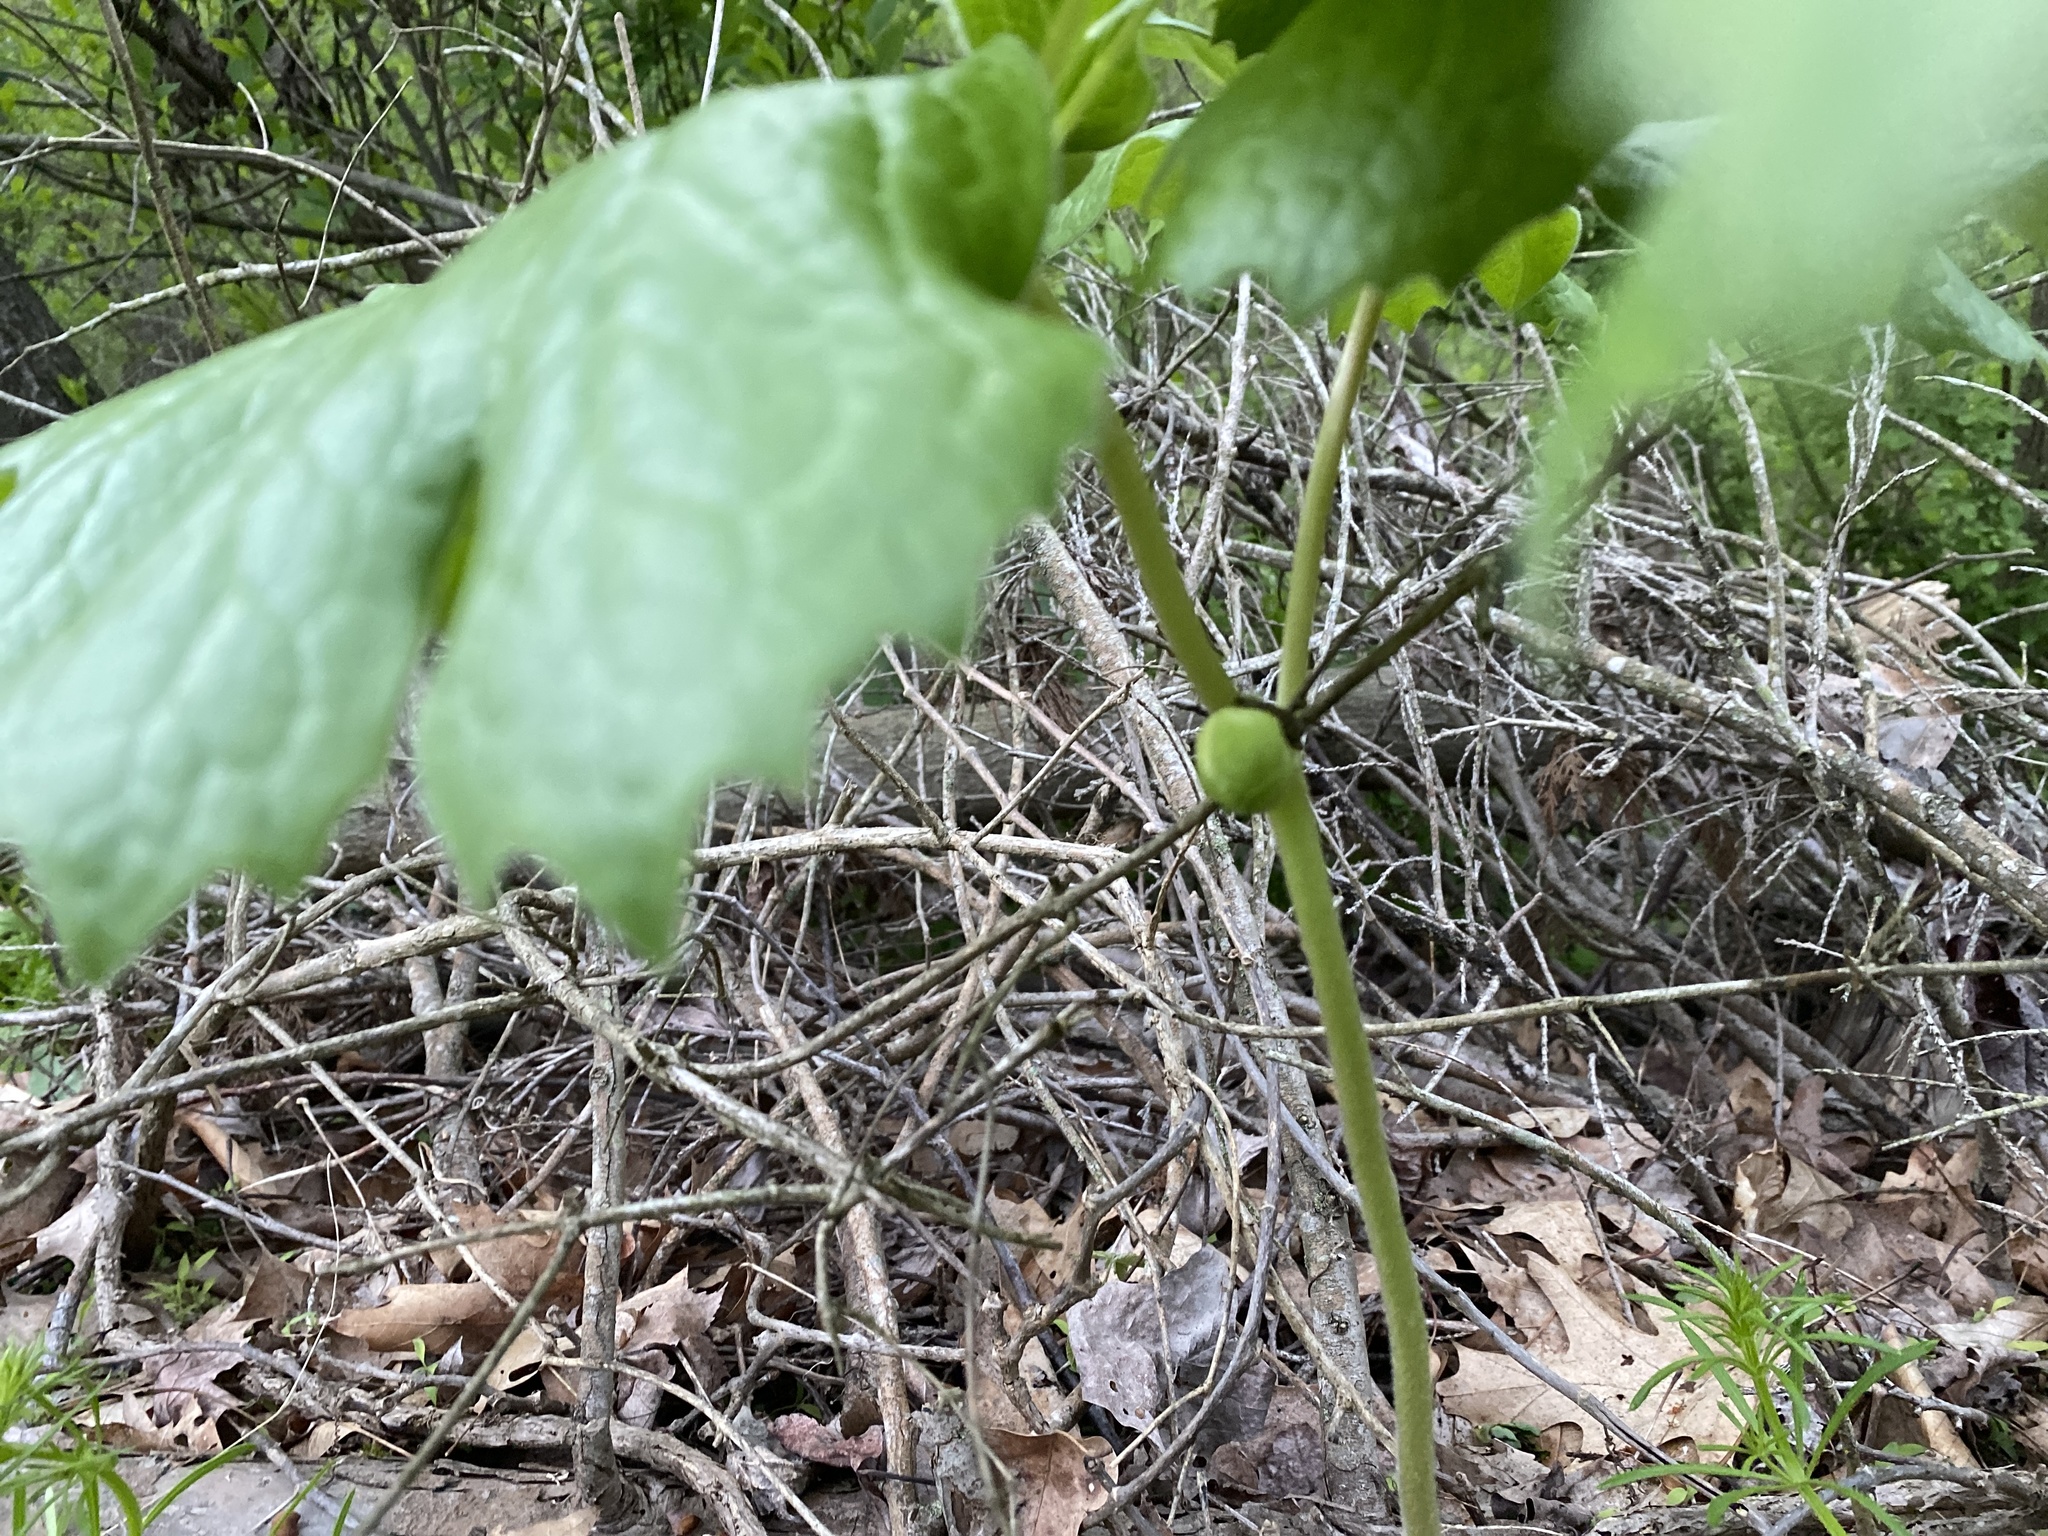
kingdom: Plantae
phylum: Tracheophyta
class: Magnoliopsida
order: Ranunculales
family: Berberidaceae
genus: Podophyllum
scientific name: Podophyllum peltatum
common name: Wild mandrake
